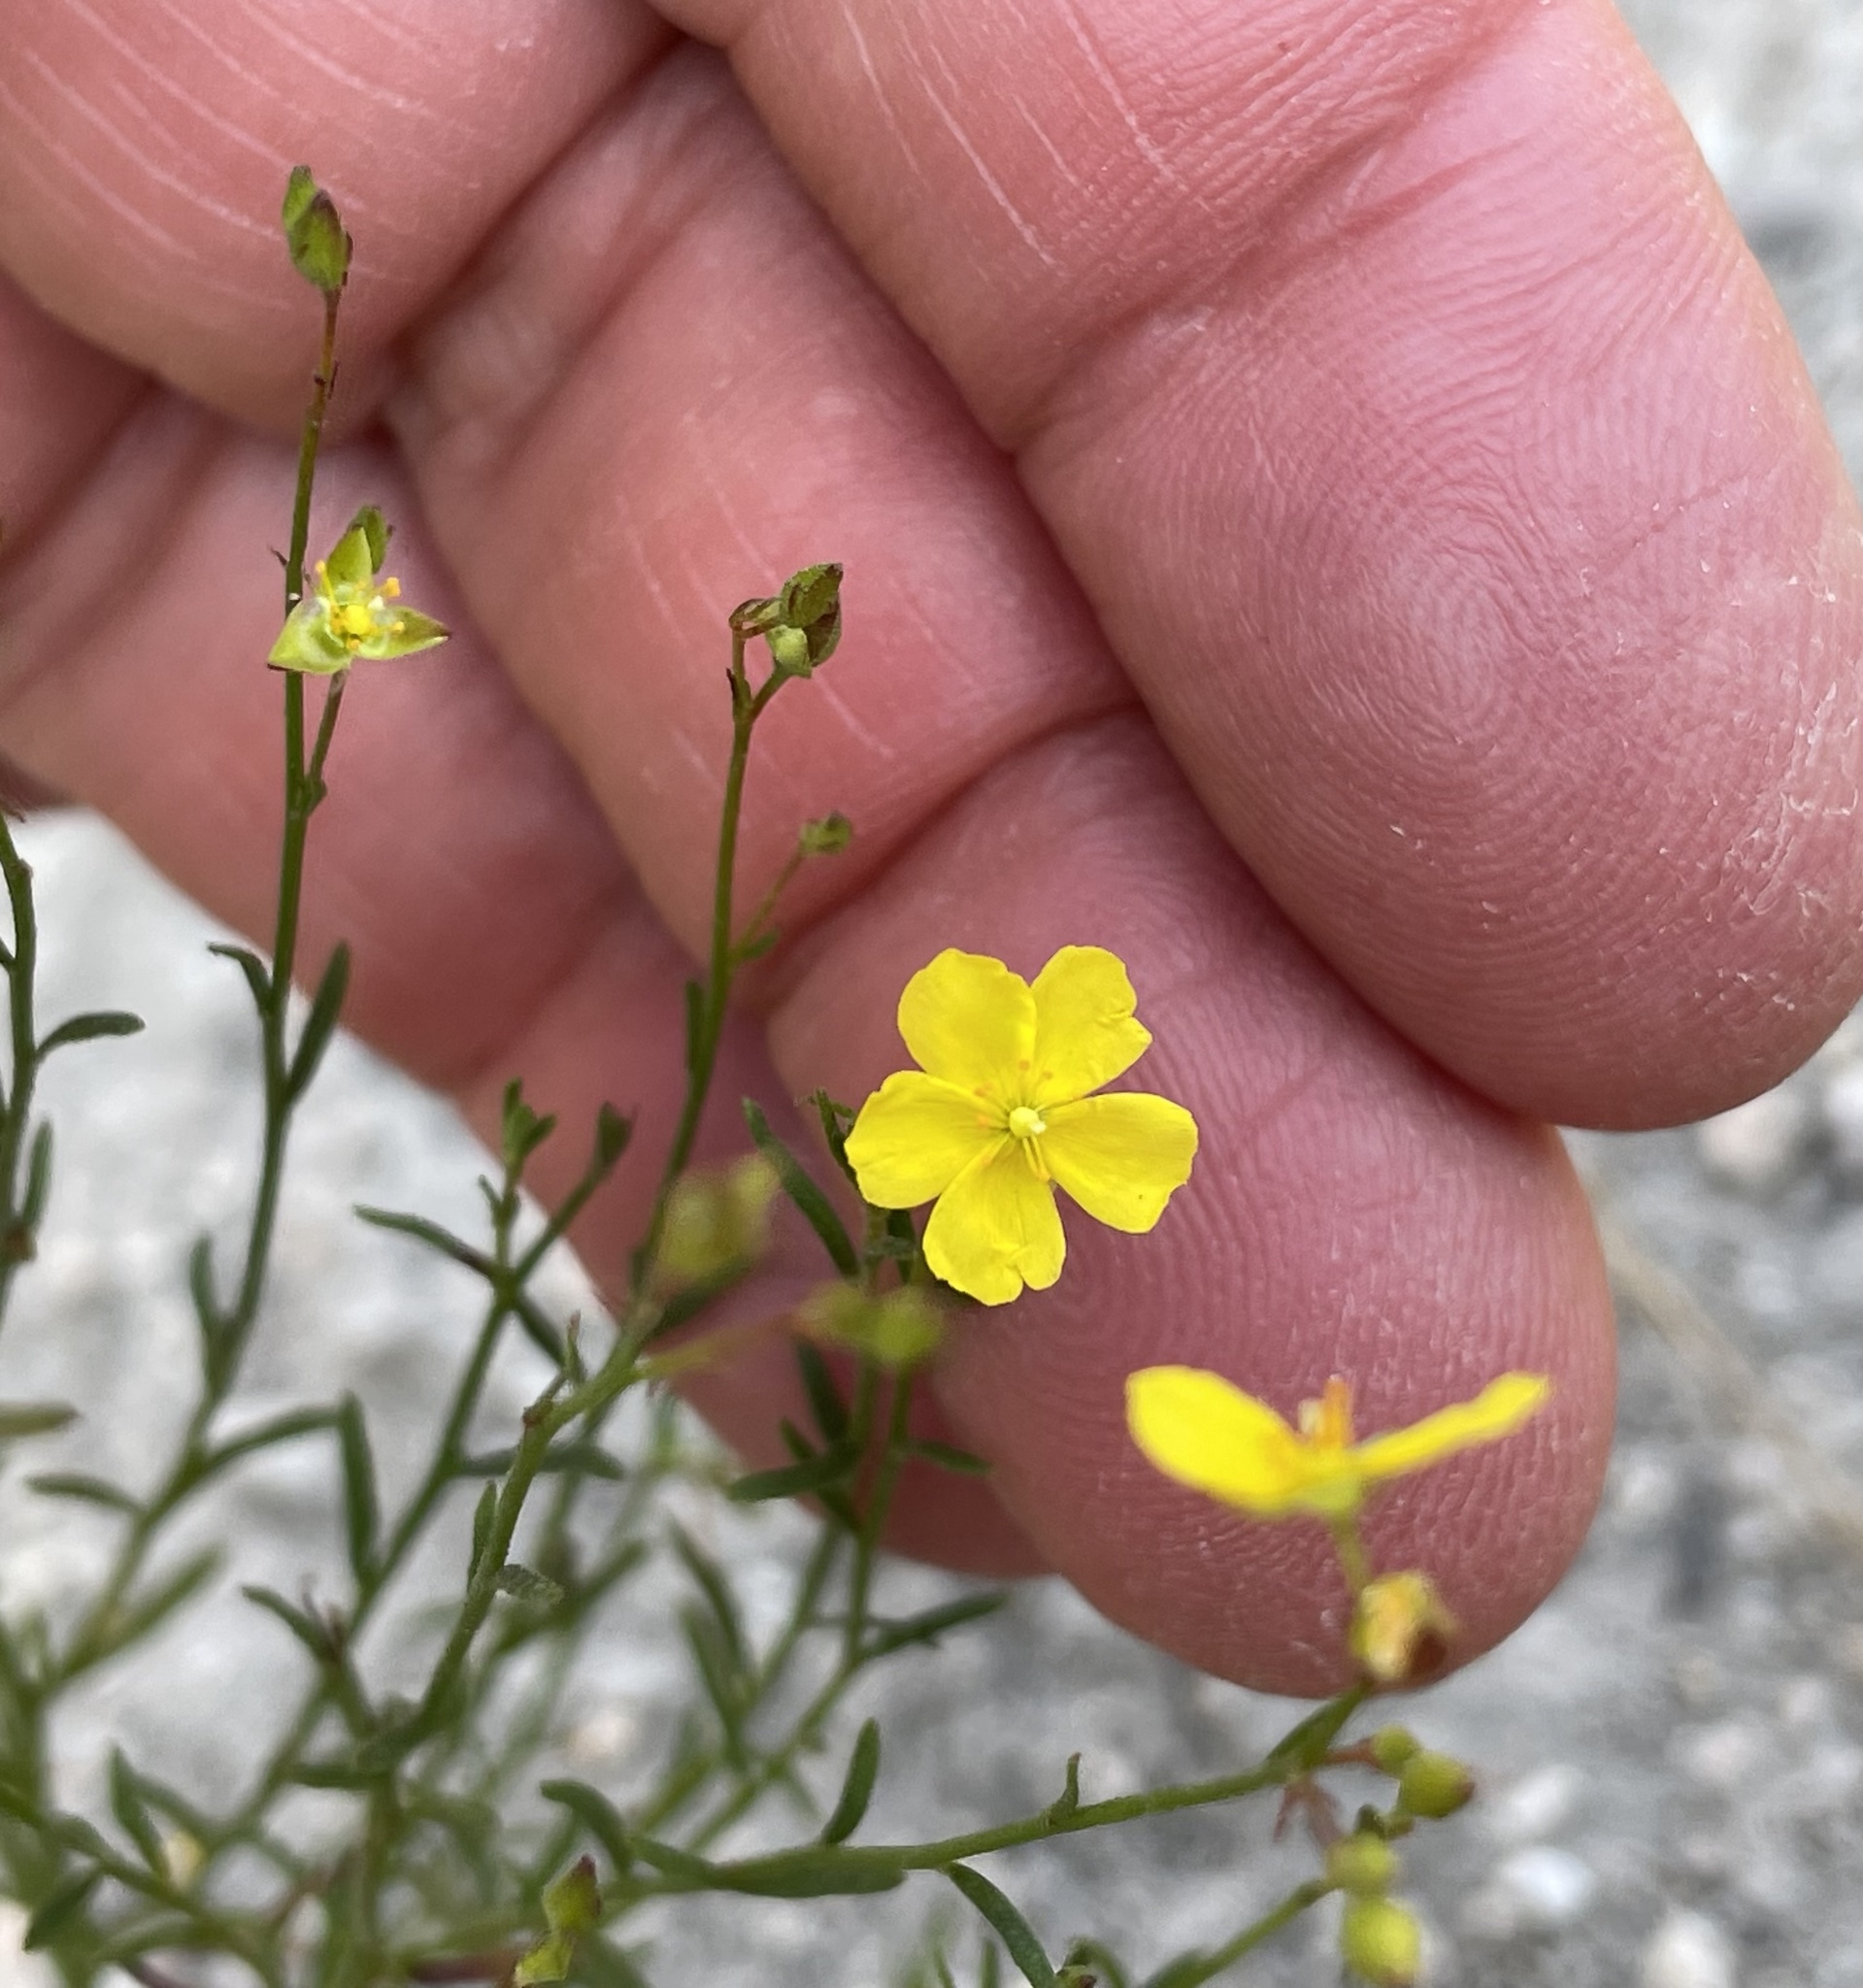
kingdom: Plantae
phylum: Tracheophyta
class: Magnoliopsida
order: Malvales
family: Cistaceae
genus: Crocanthemum
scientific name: Crocanthemum scoparium
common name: Broom-rose
